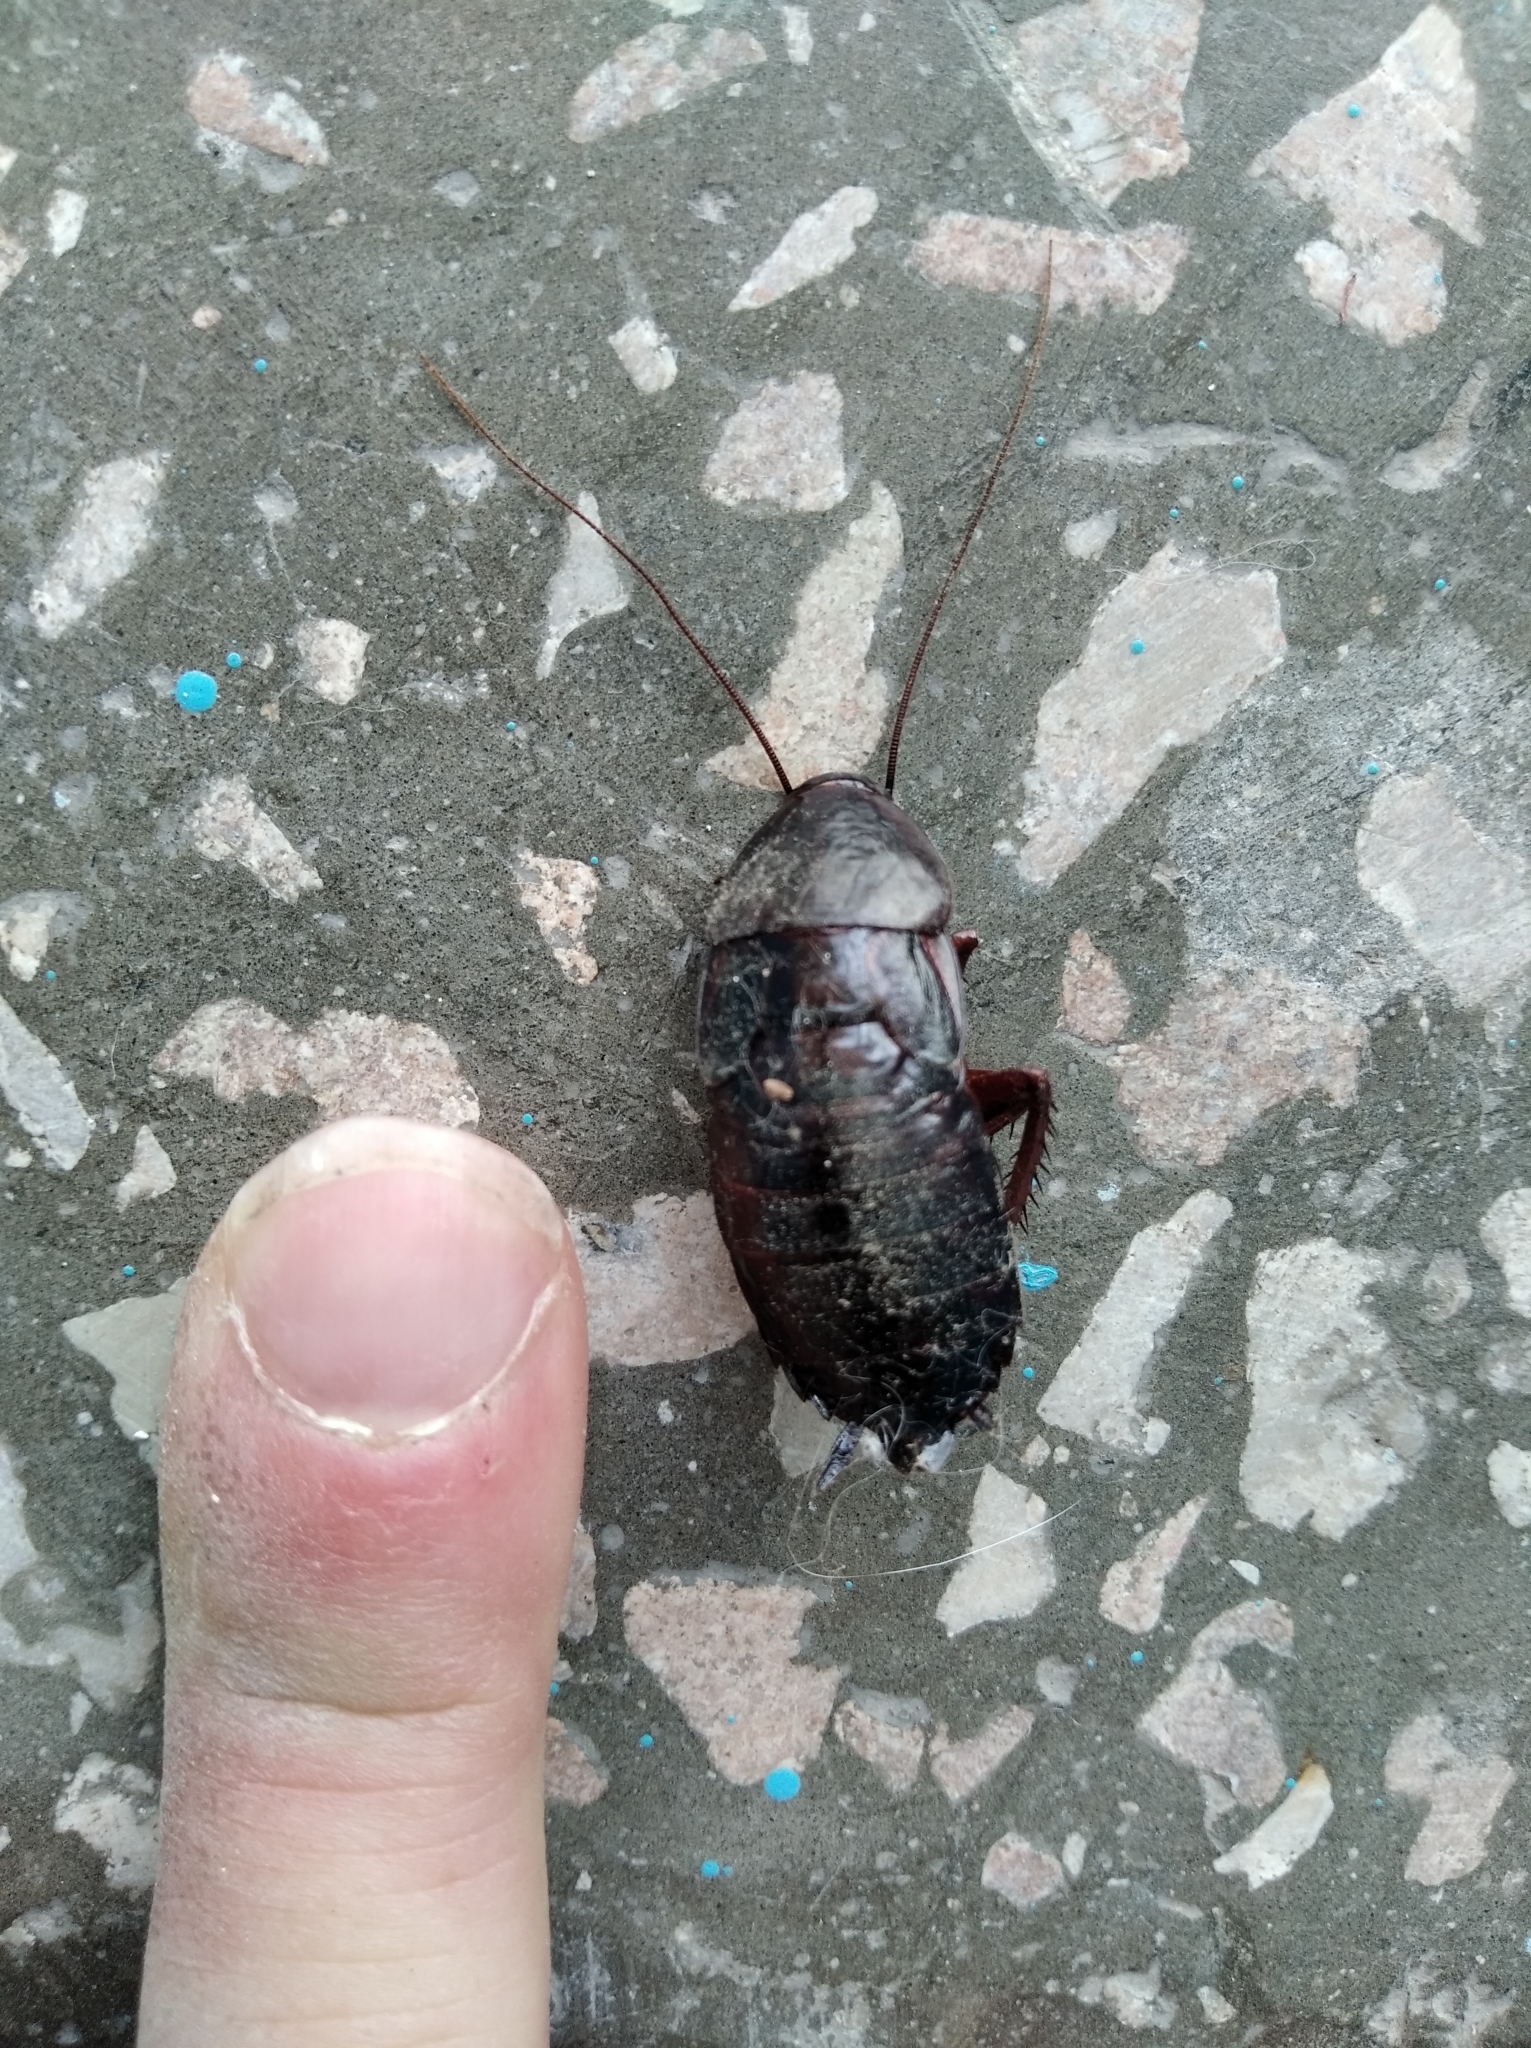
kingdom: Animalia
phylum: Arthropoda
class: Insecta
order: Blattodea
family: Blattidae
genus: Blatta
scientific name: Blatta orientalis
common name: Oriental cockroach
